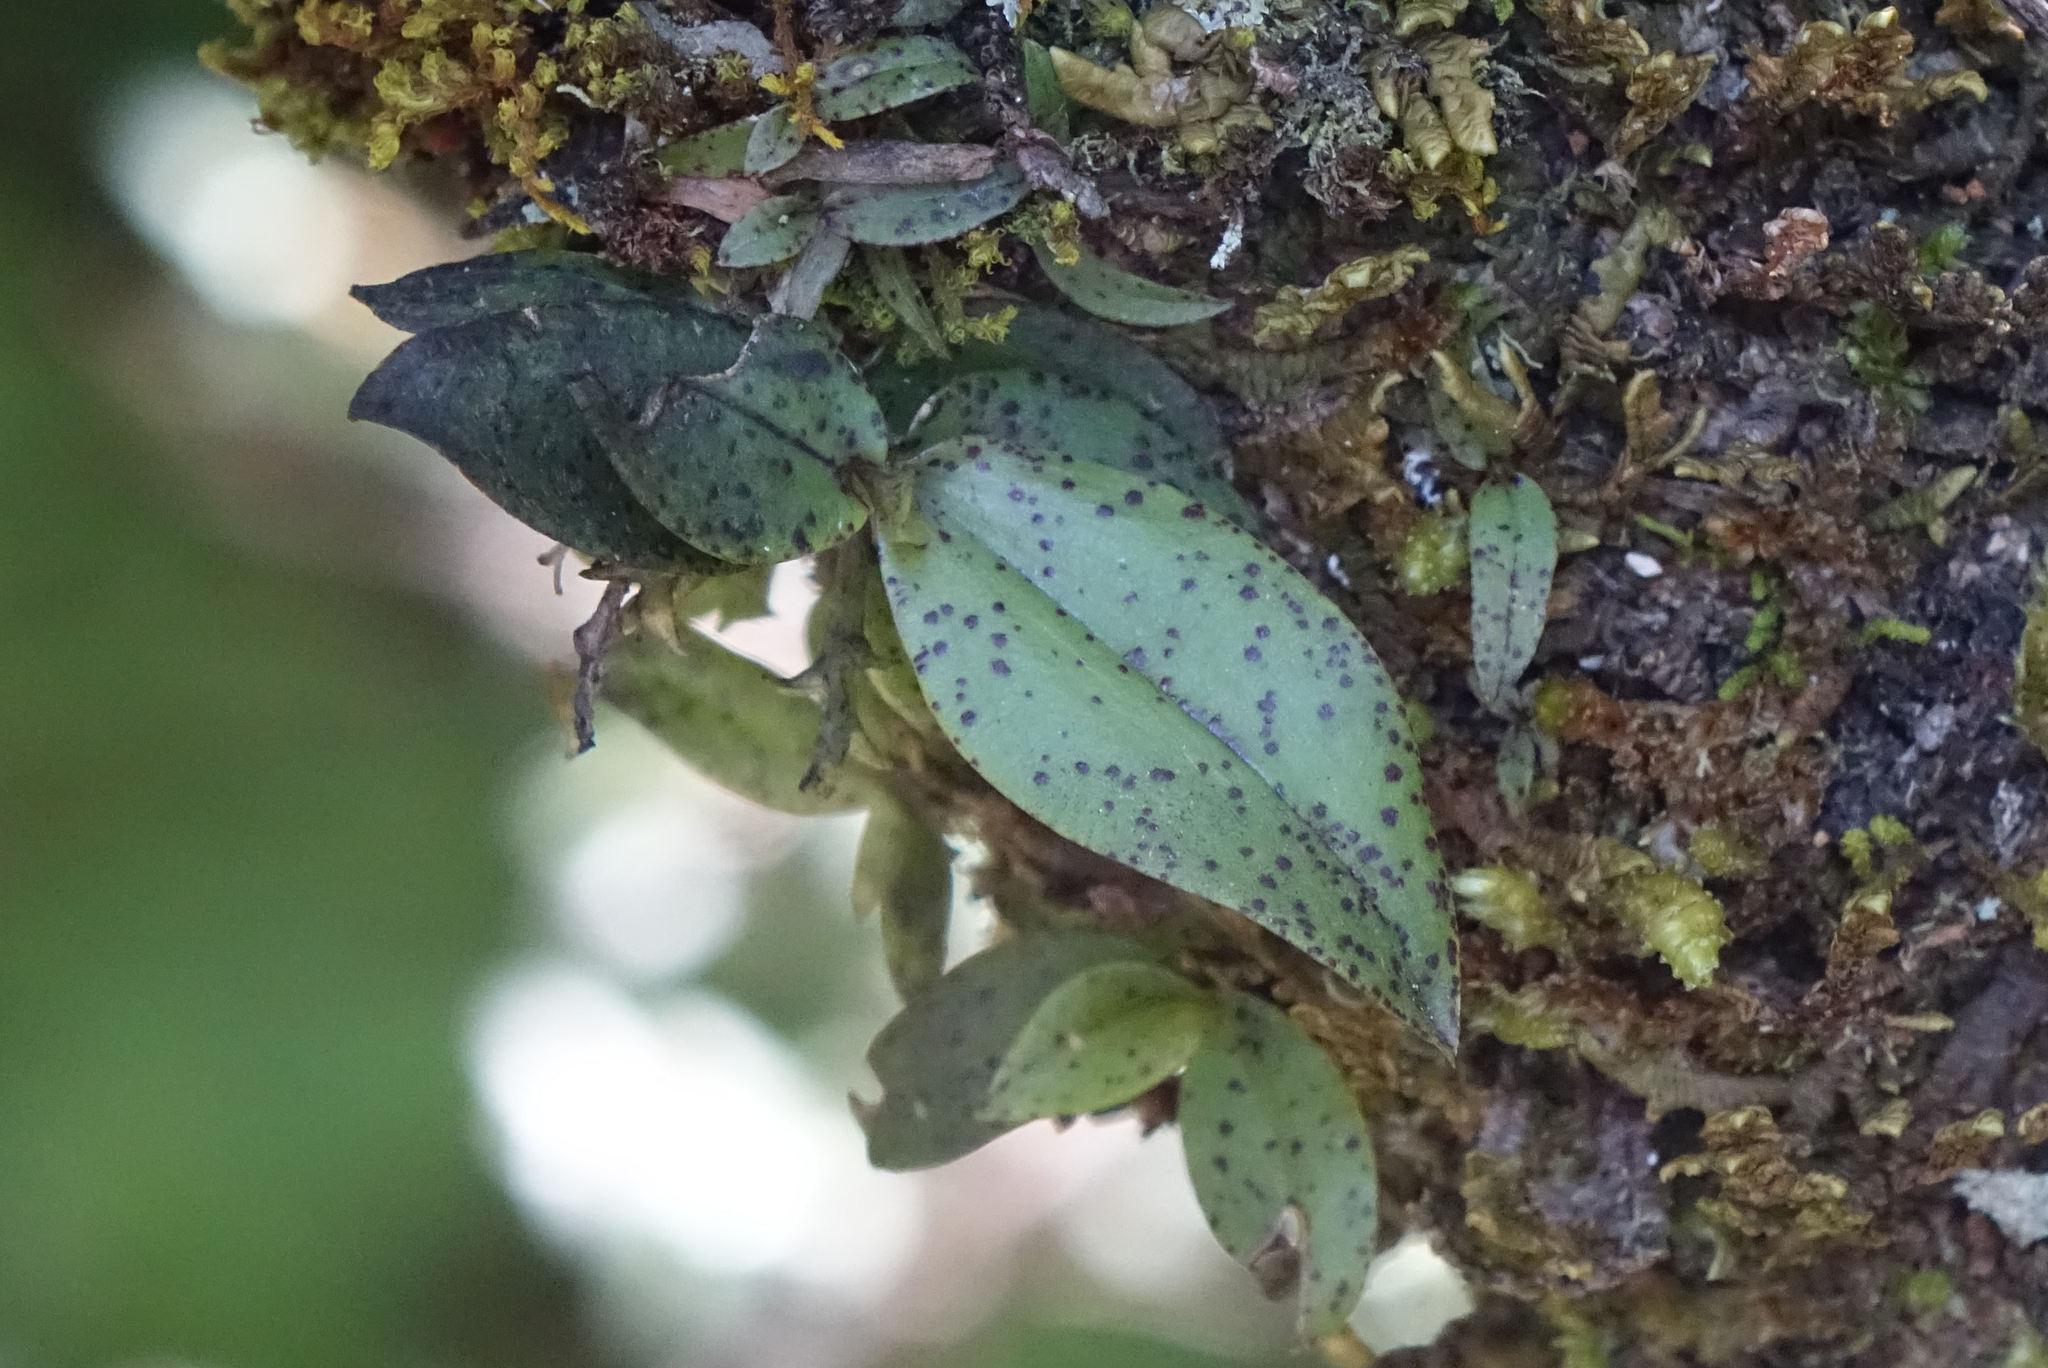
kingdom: Plantae
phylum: Tracheophyta
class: Liliopsida
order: Asparagales
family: Orchidaceae
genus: Drymoanthus
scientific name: Drymoanthus flavus
